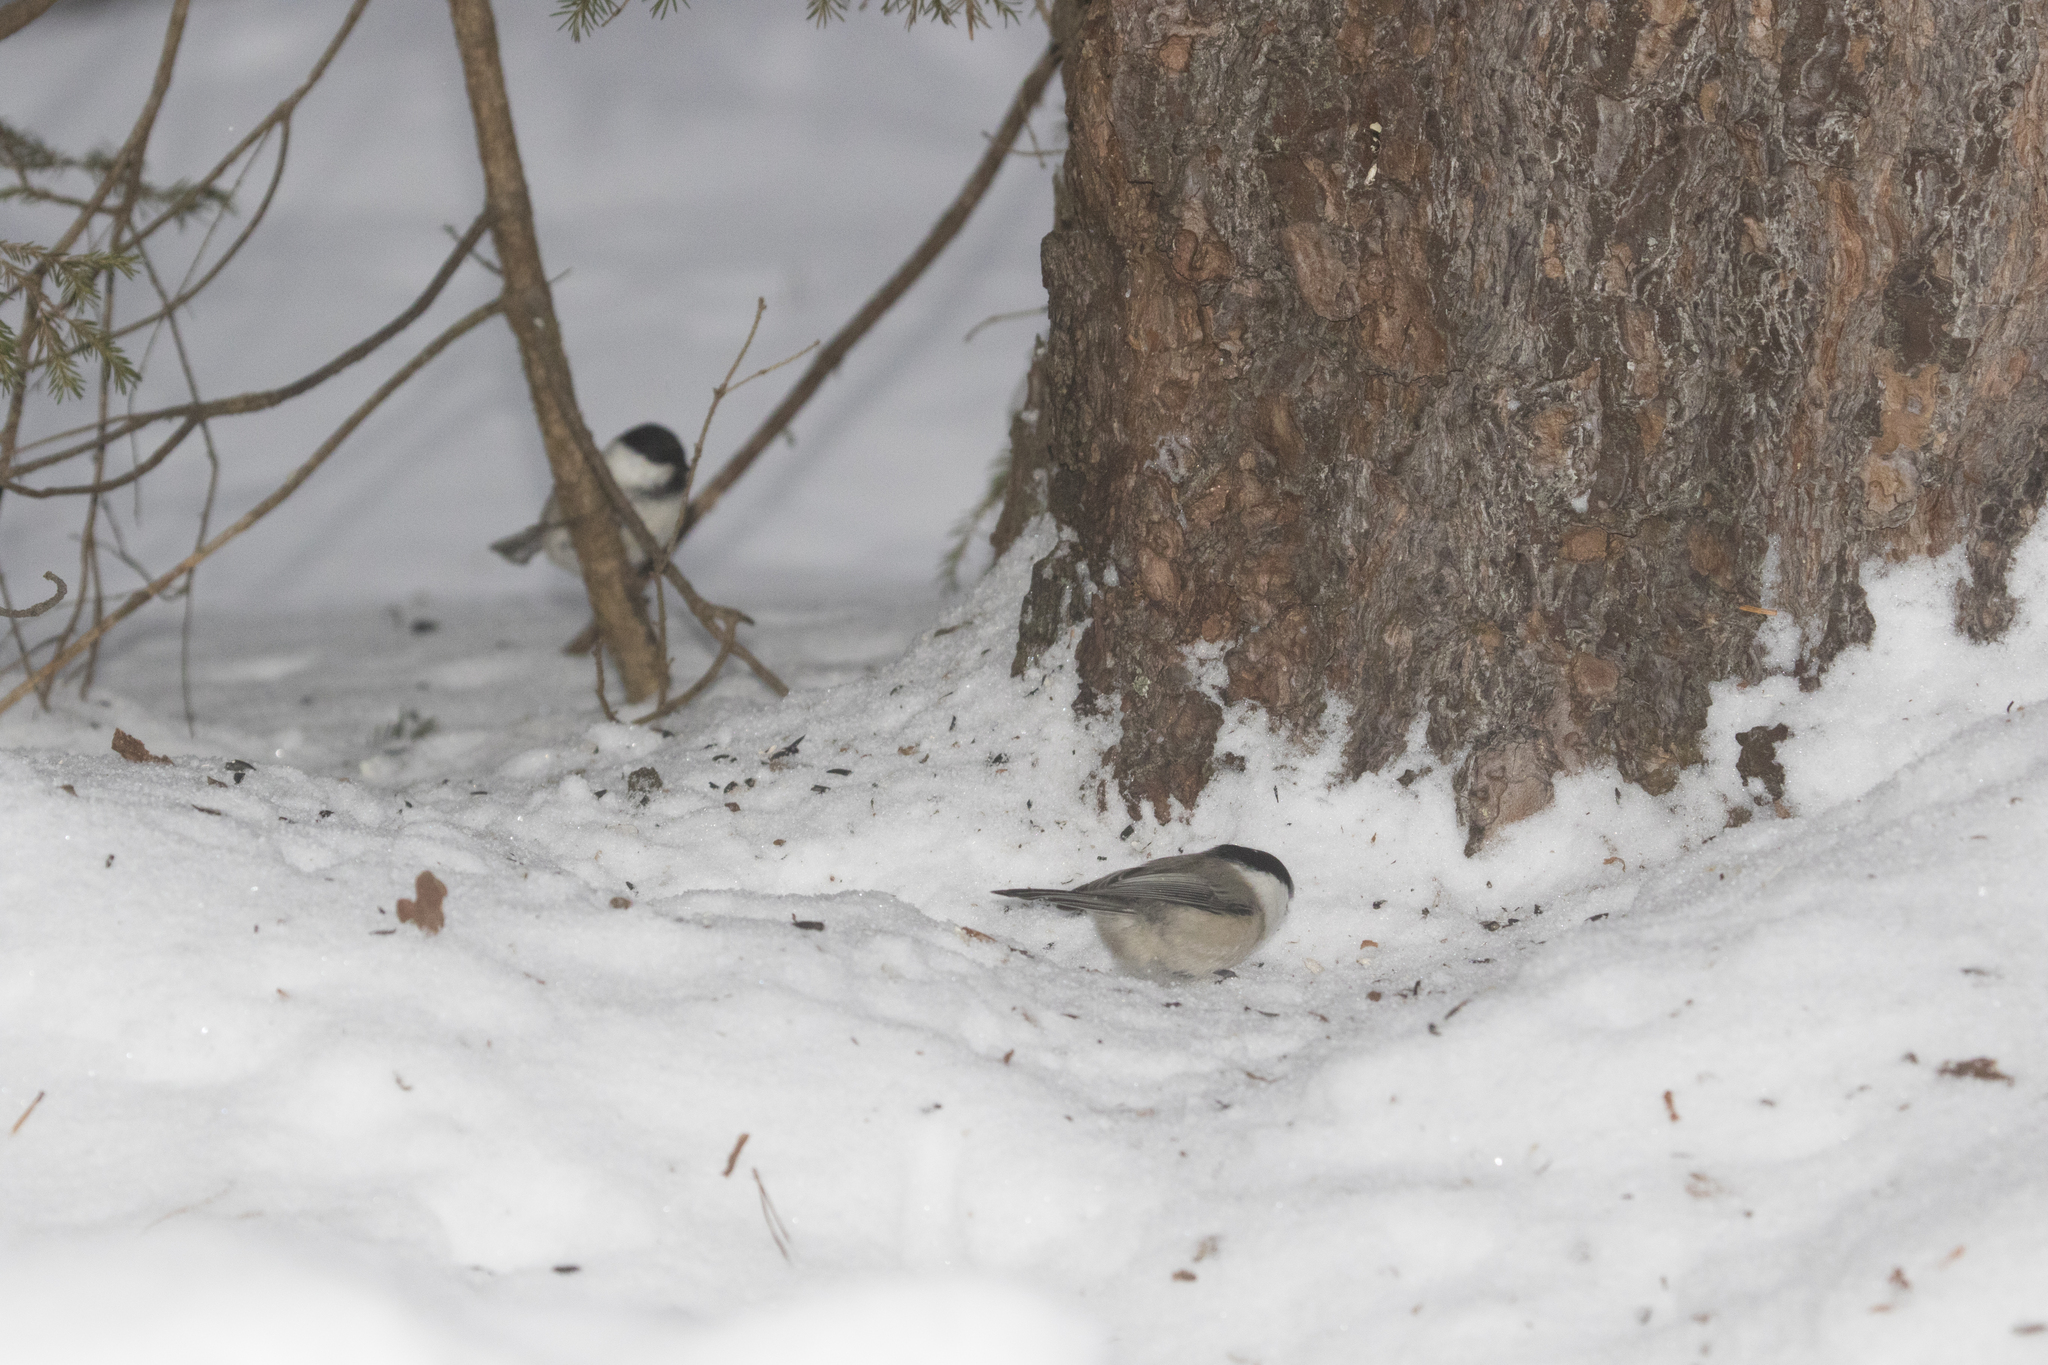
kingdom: Animalia
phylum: Chordata
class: Aves
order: Passeriformes
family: Paridae
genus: Poecile
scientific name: Poecile montanus
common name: Willow tit
